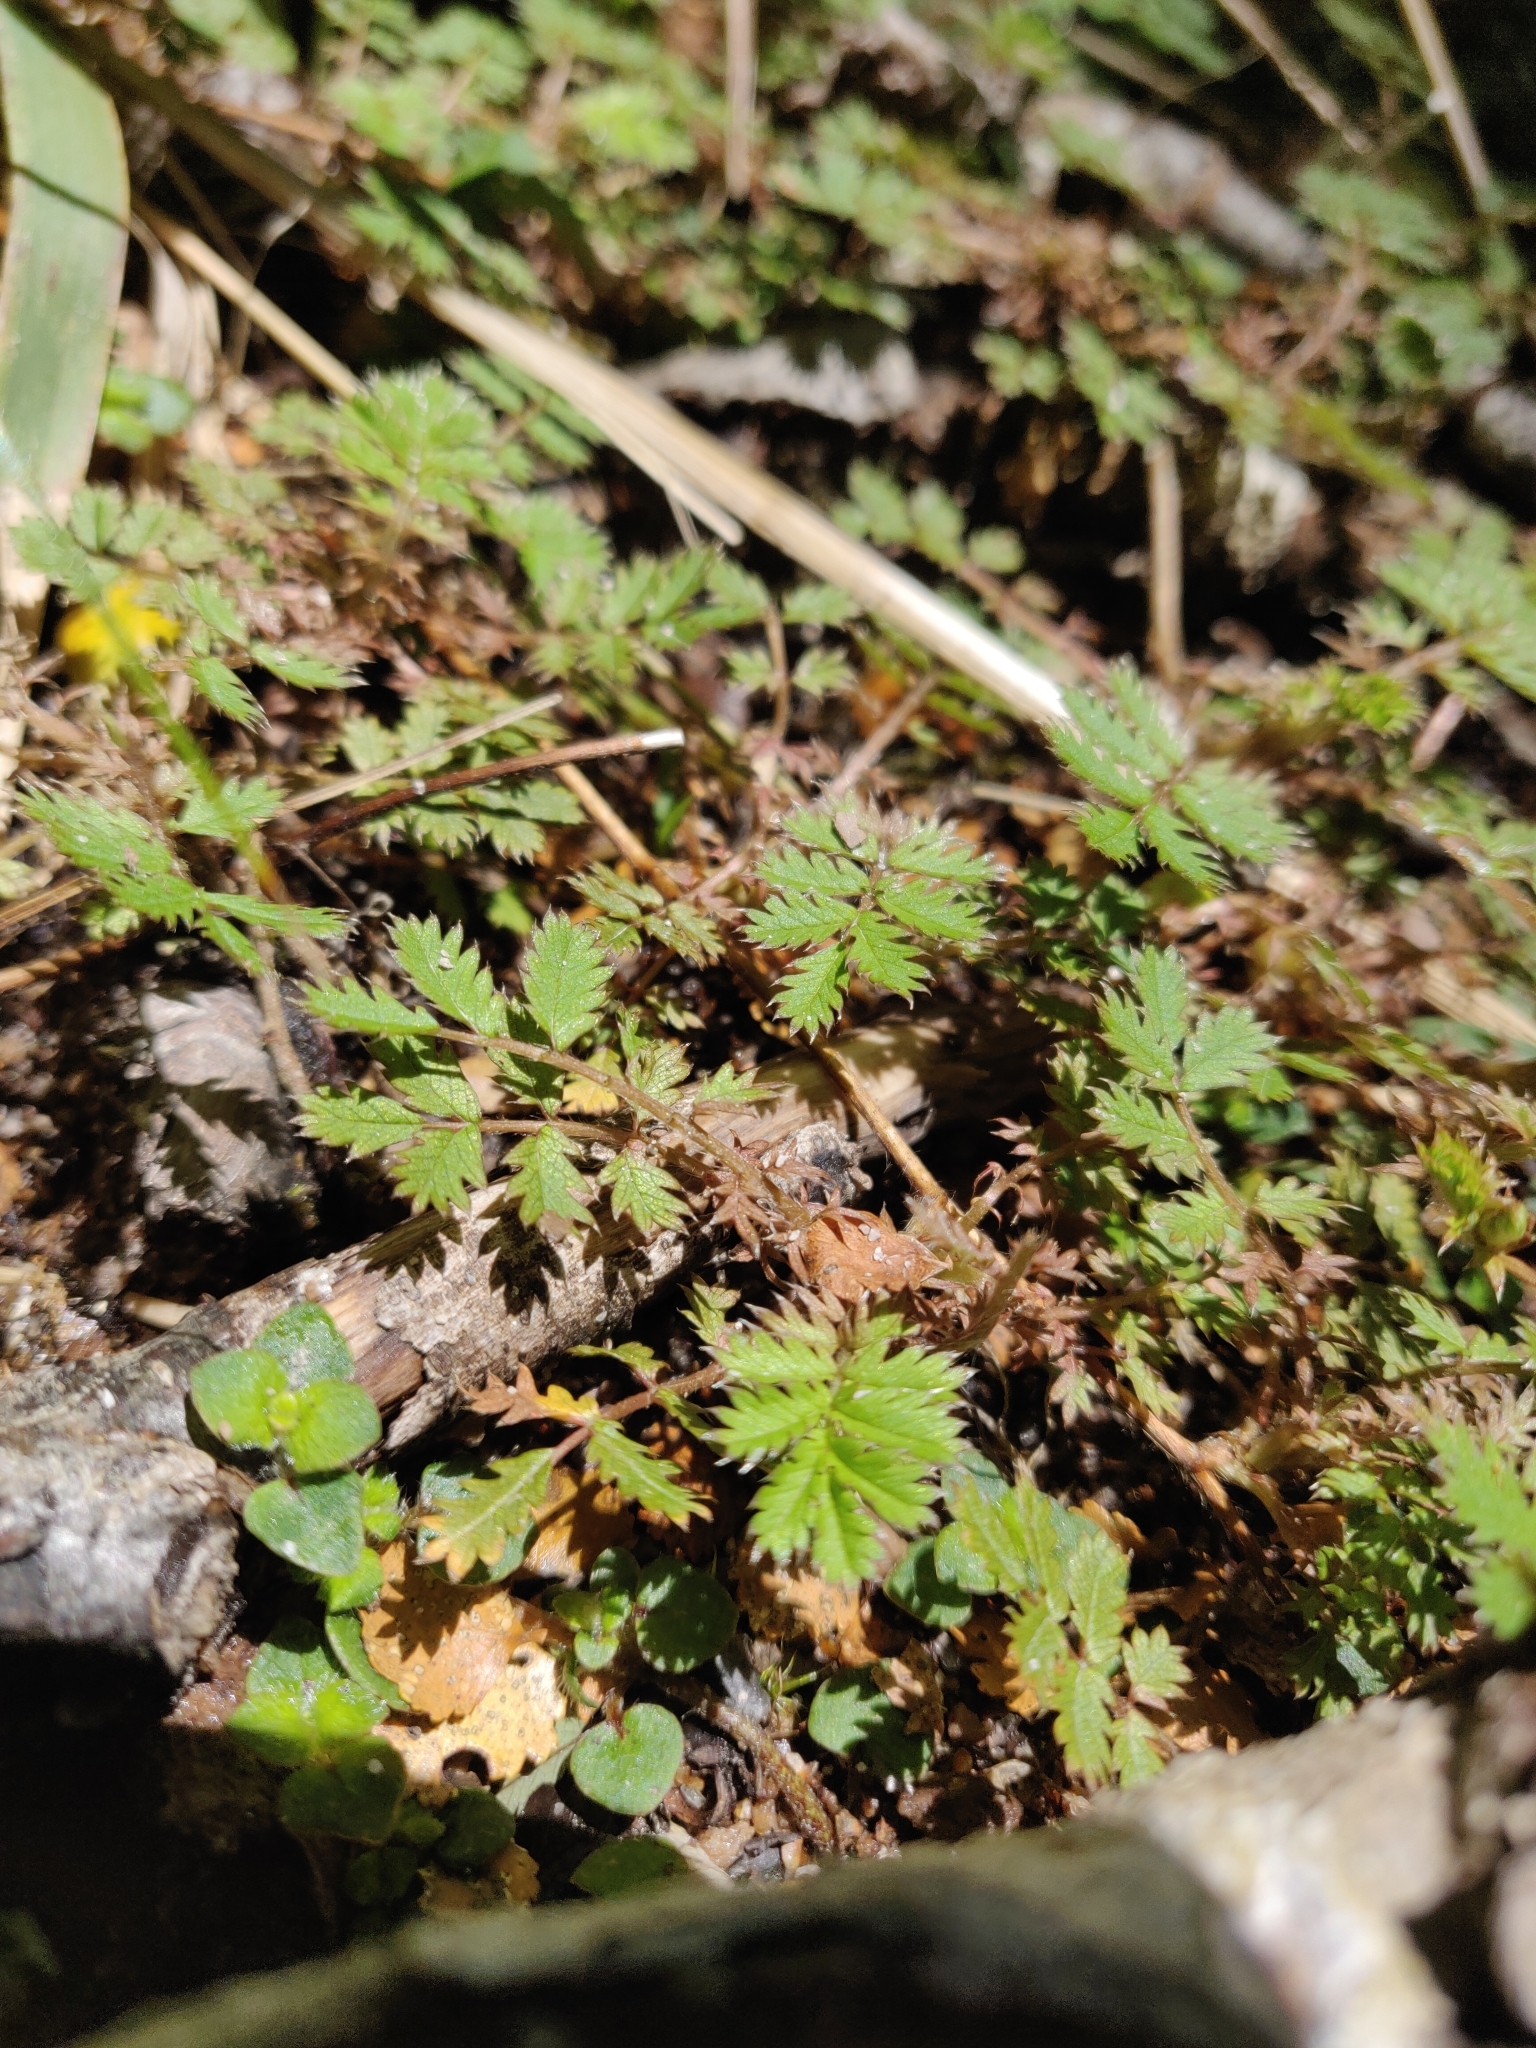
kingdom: Plantae
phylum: Tracheophyta
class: Magnoliopsida
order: Rosales
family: Rosaceae
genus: Acaena
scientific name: Acaena anserinifolia
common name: Bronze pirri-pirri-bur
